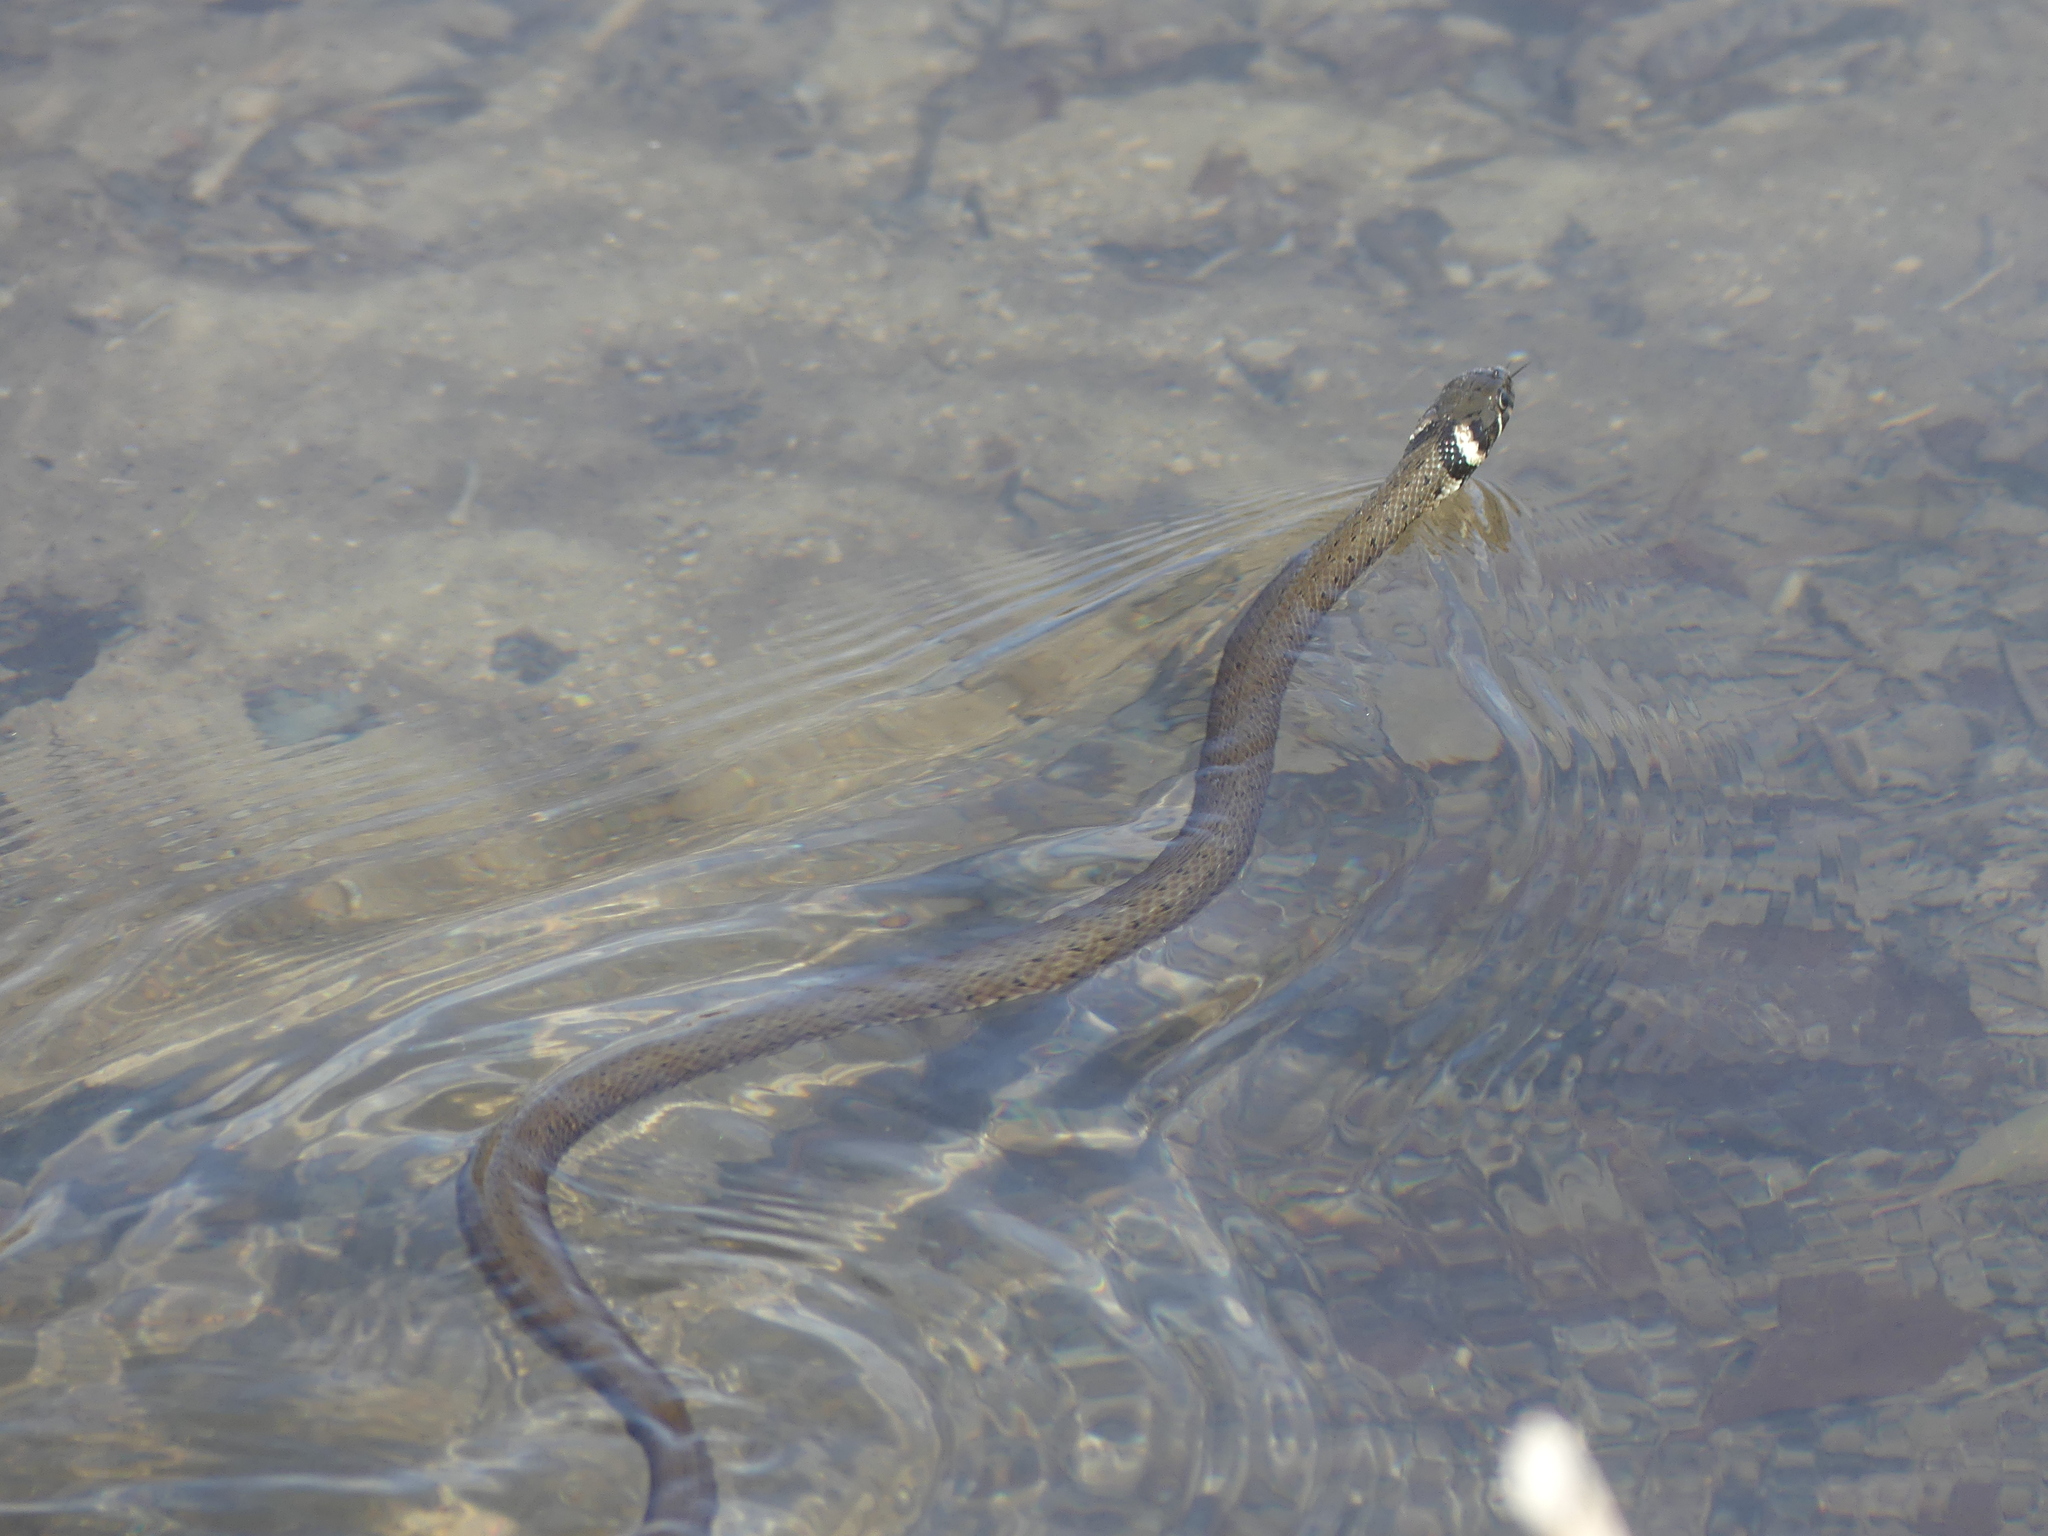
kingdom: Animalia
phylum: Chordata
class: Squamata
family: Colubridae
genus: Natrix
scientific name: Natrix natrix
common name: Grass snake
